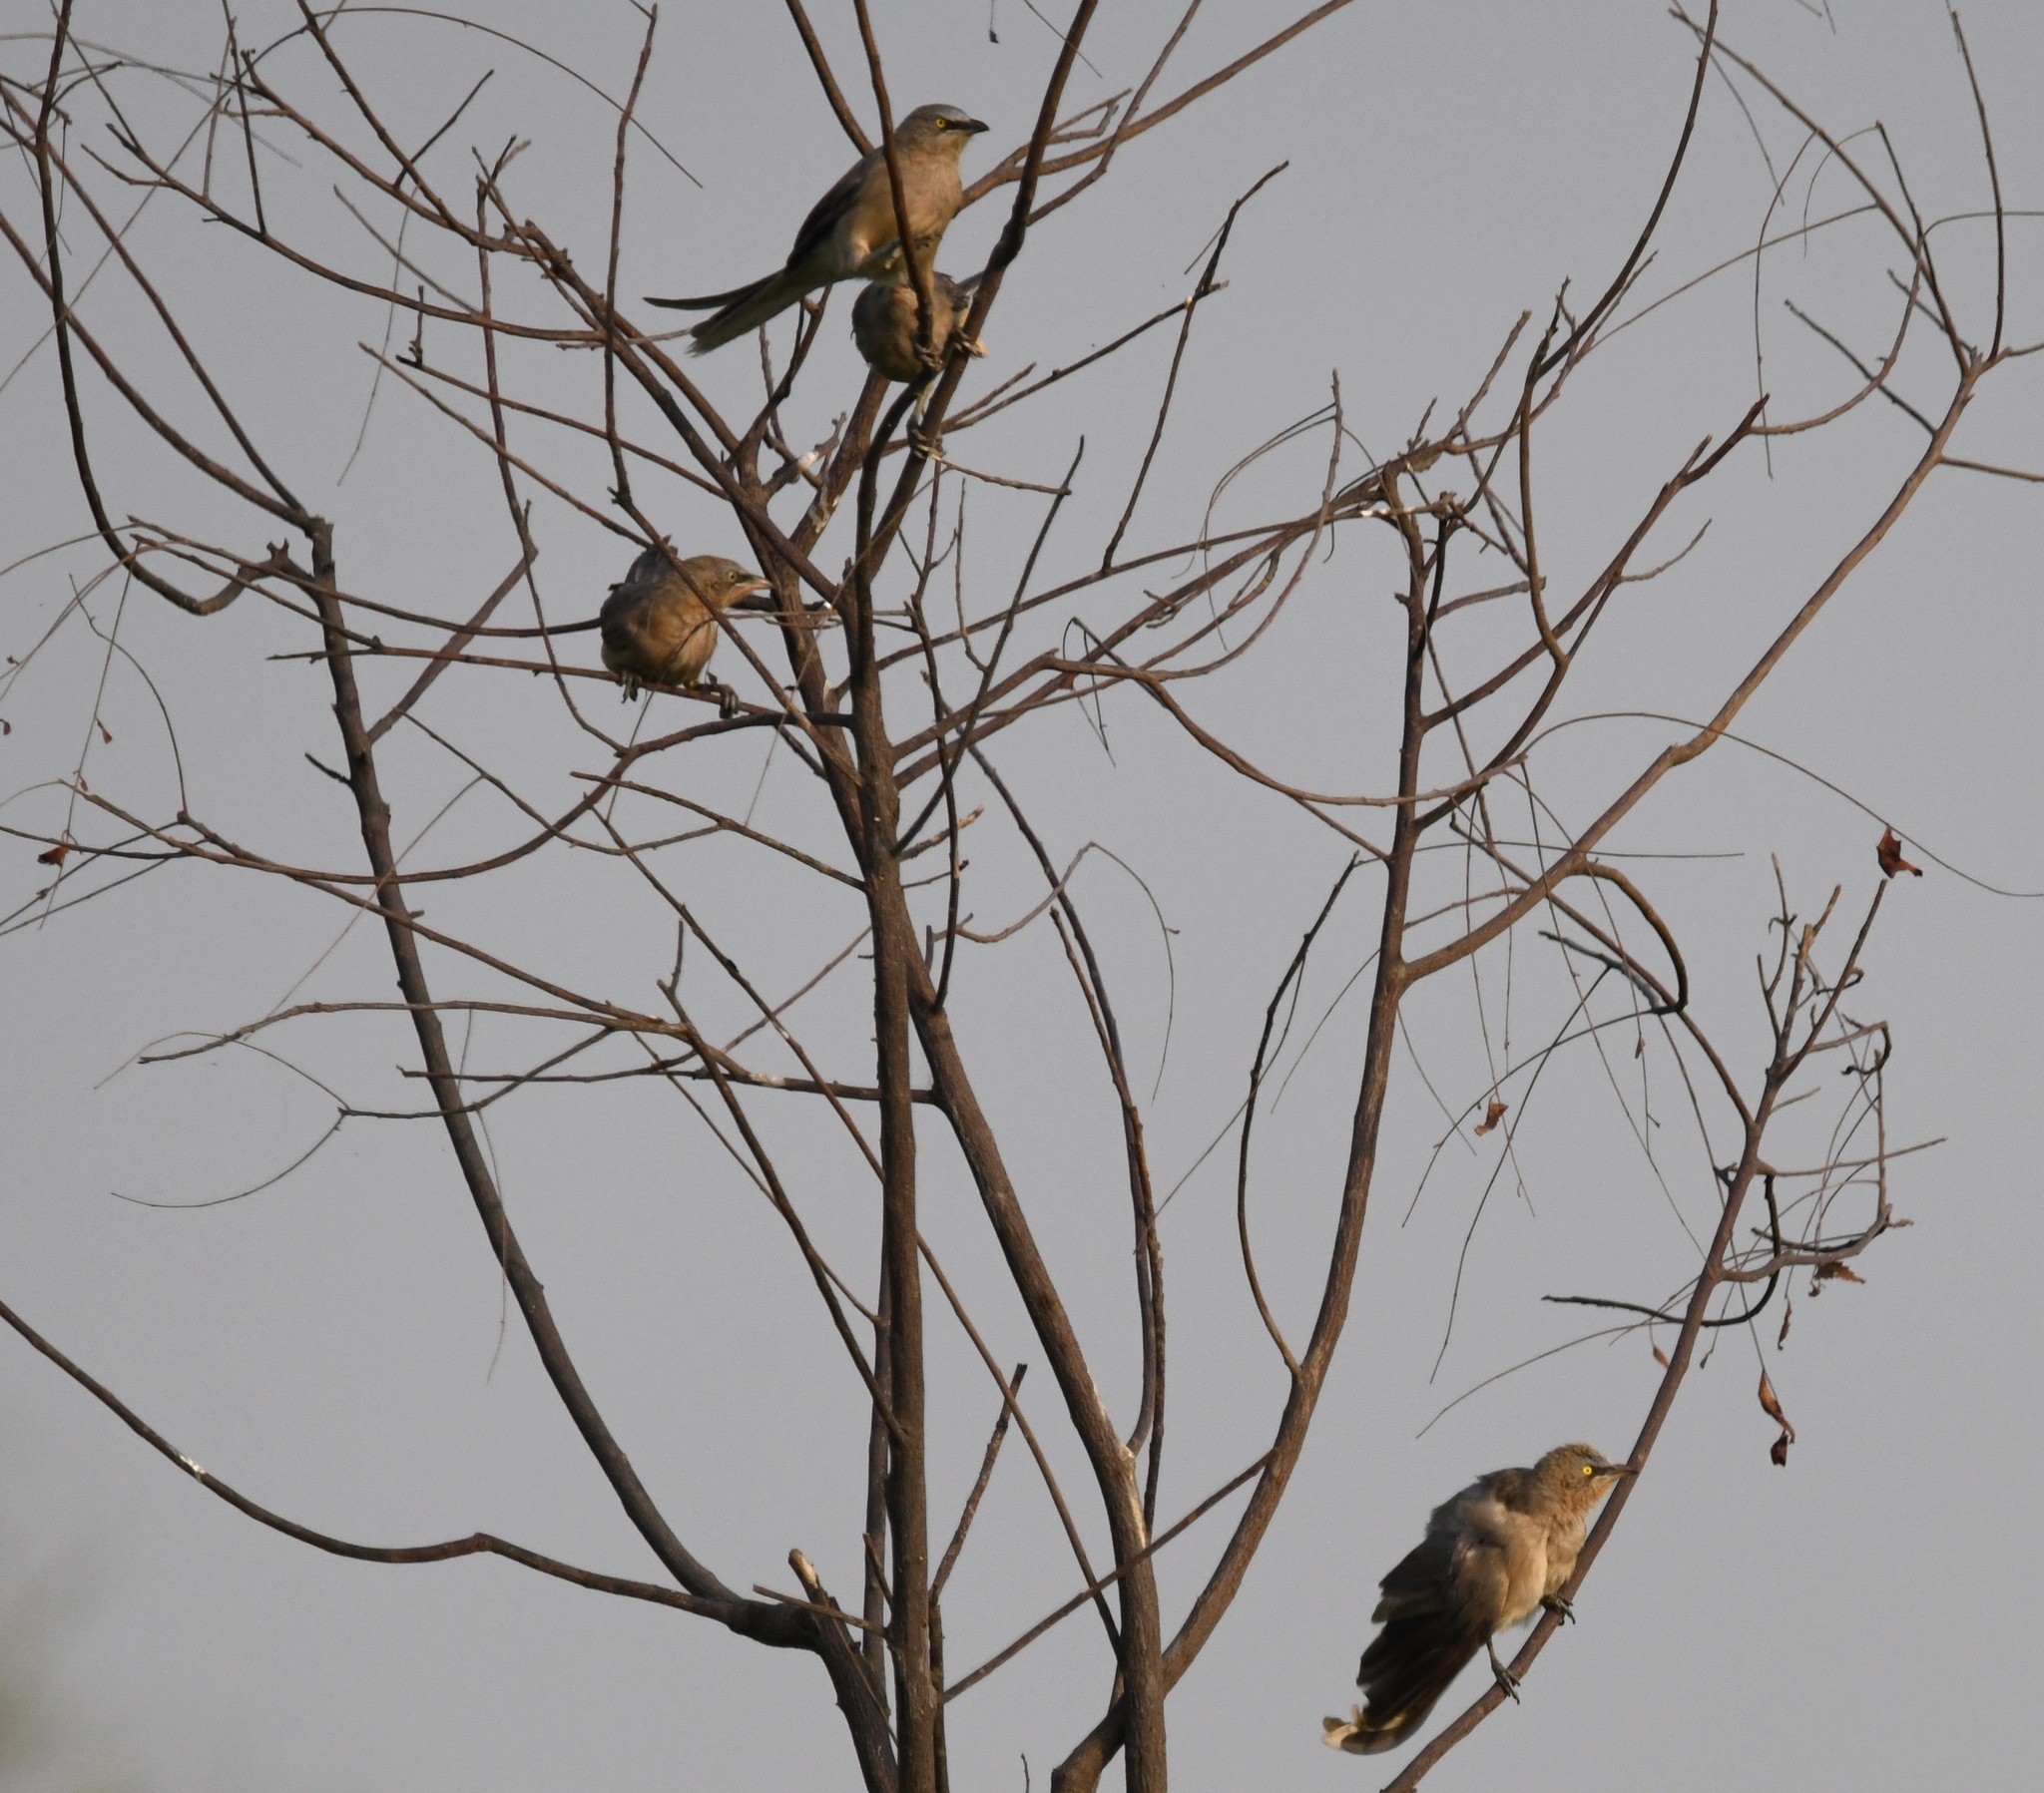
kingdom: Animalia
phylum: Chordata
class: Aves
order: Passeriformes
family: Leiothrichidae
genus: Turdoides
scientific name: Turdoides malcolmi
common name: Large grey babbler
